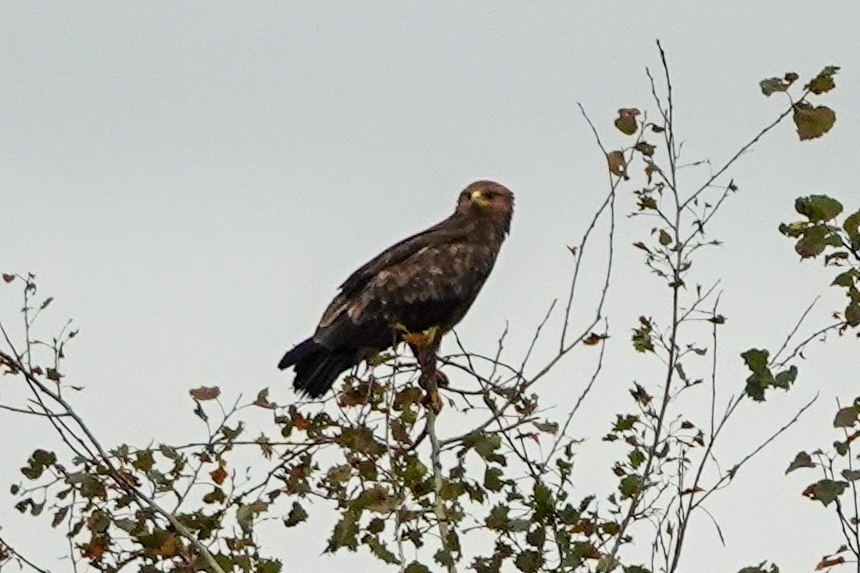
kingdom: Animalia
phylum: Chordata
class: Aves
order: Accipitriformes
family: Accipitridae
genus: Aquila
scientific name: Aquila pomarina
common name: Lesser spotted eagle
